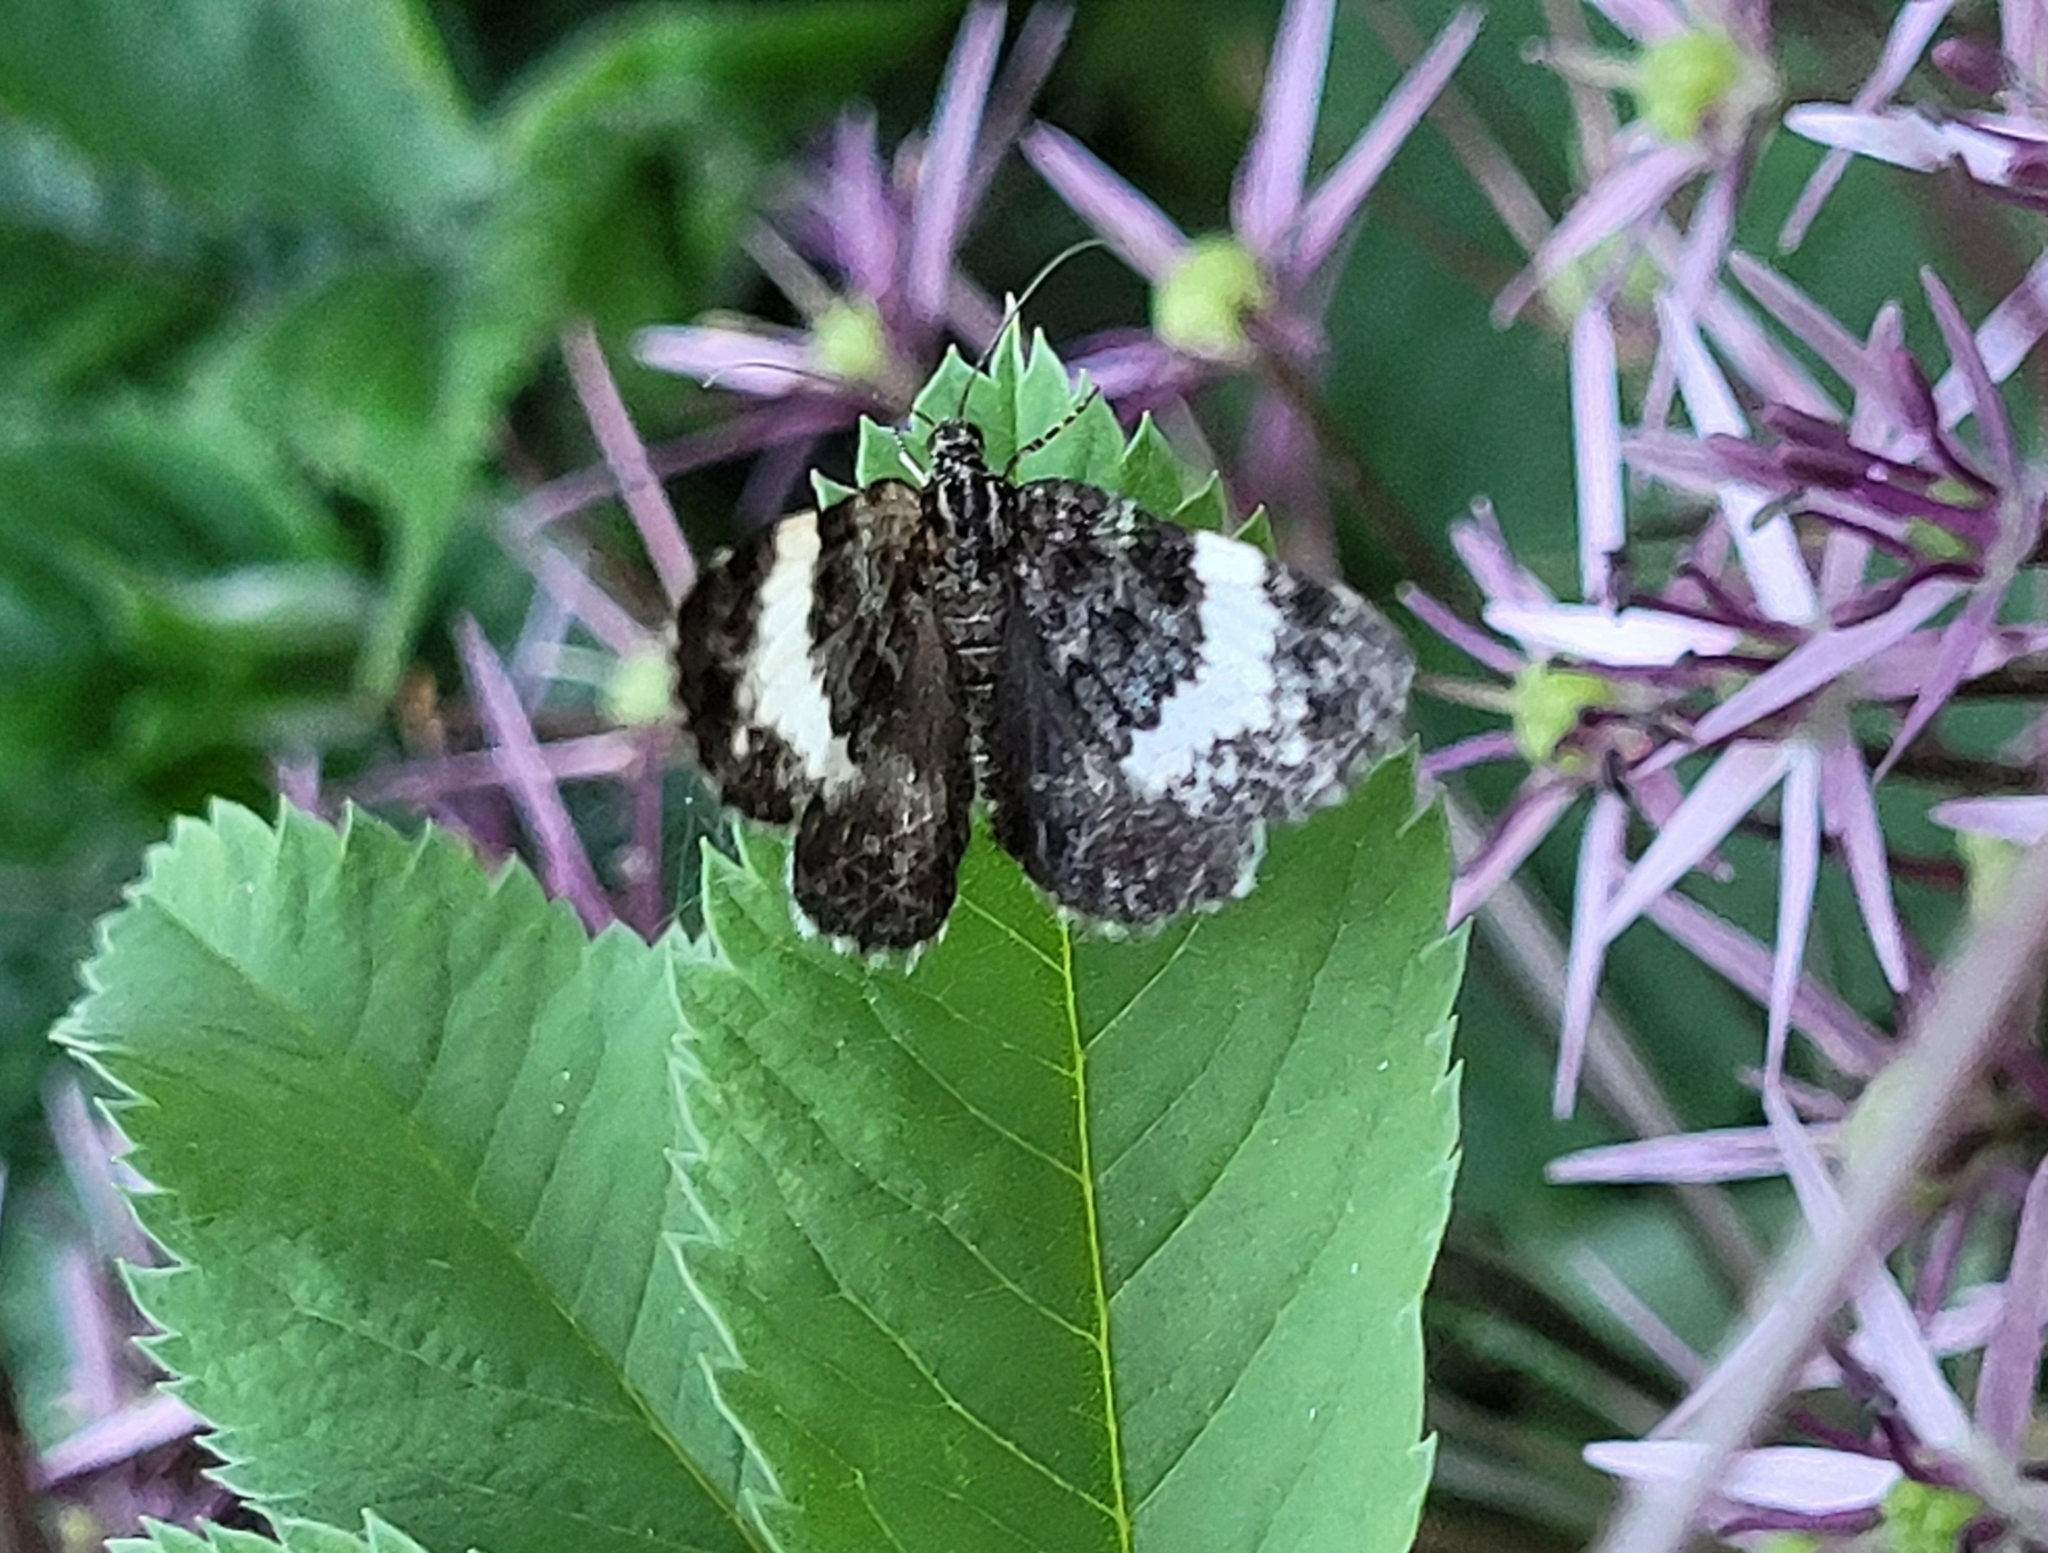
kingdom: Animalia
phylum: Arthropoda
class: Insecta
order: Lepidoptera
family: Geometridae
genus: Spargania
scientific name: Spargania luctuata
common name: White-banded carpet
